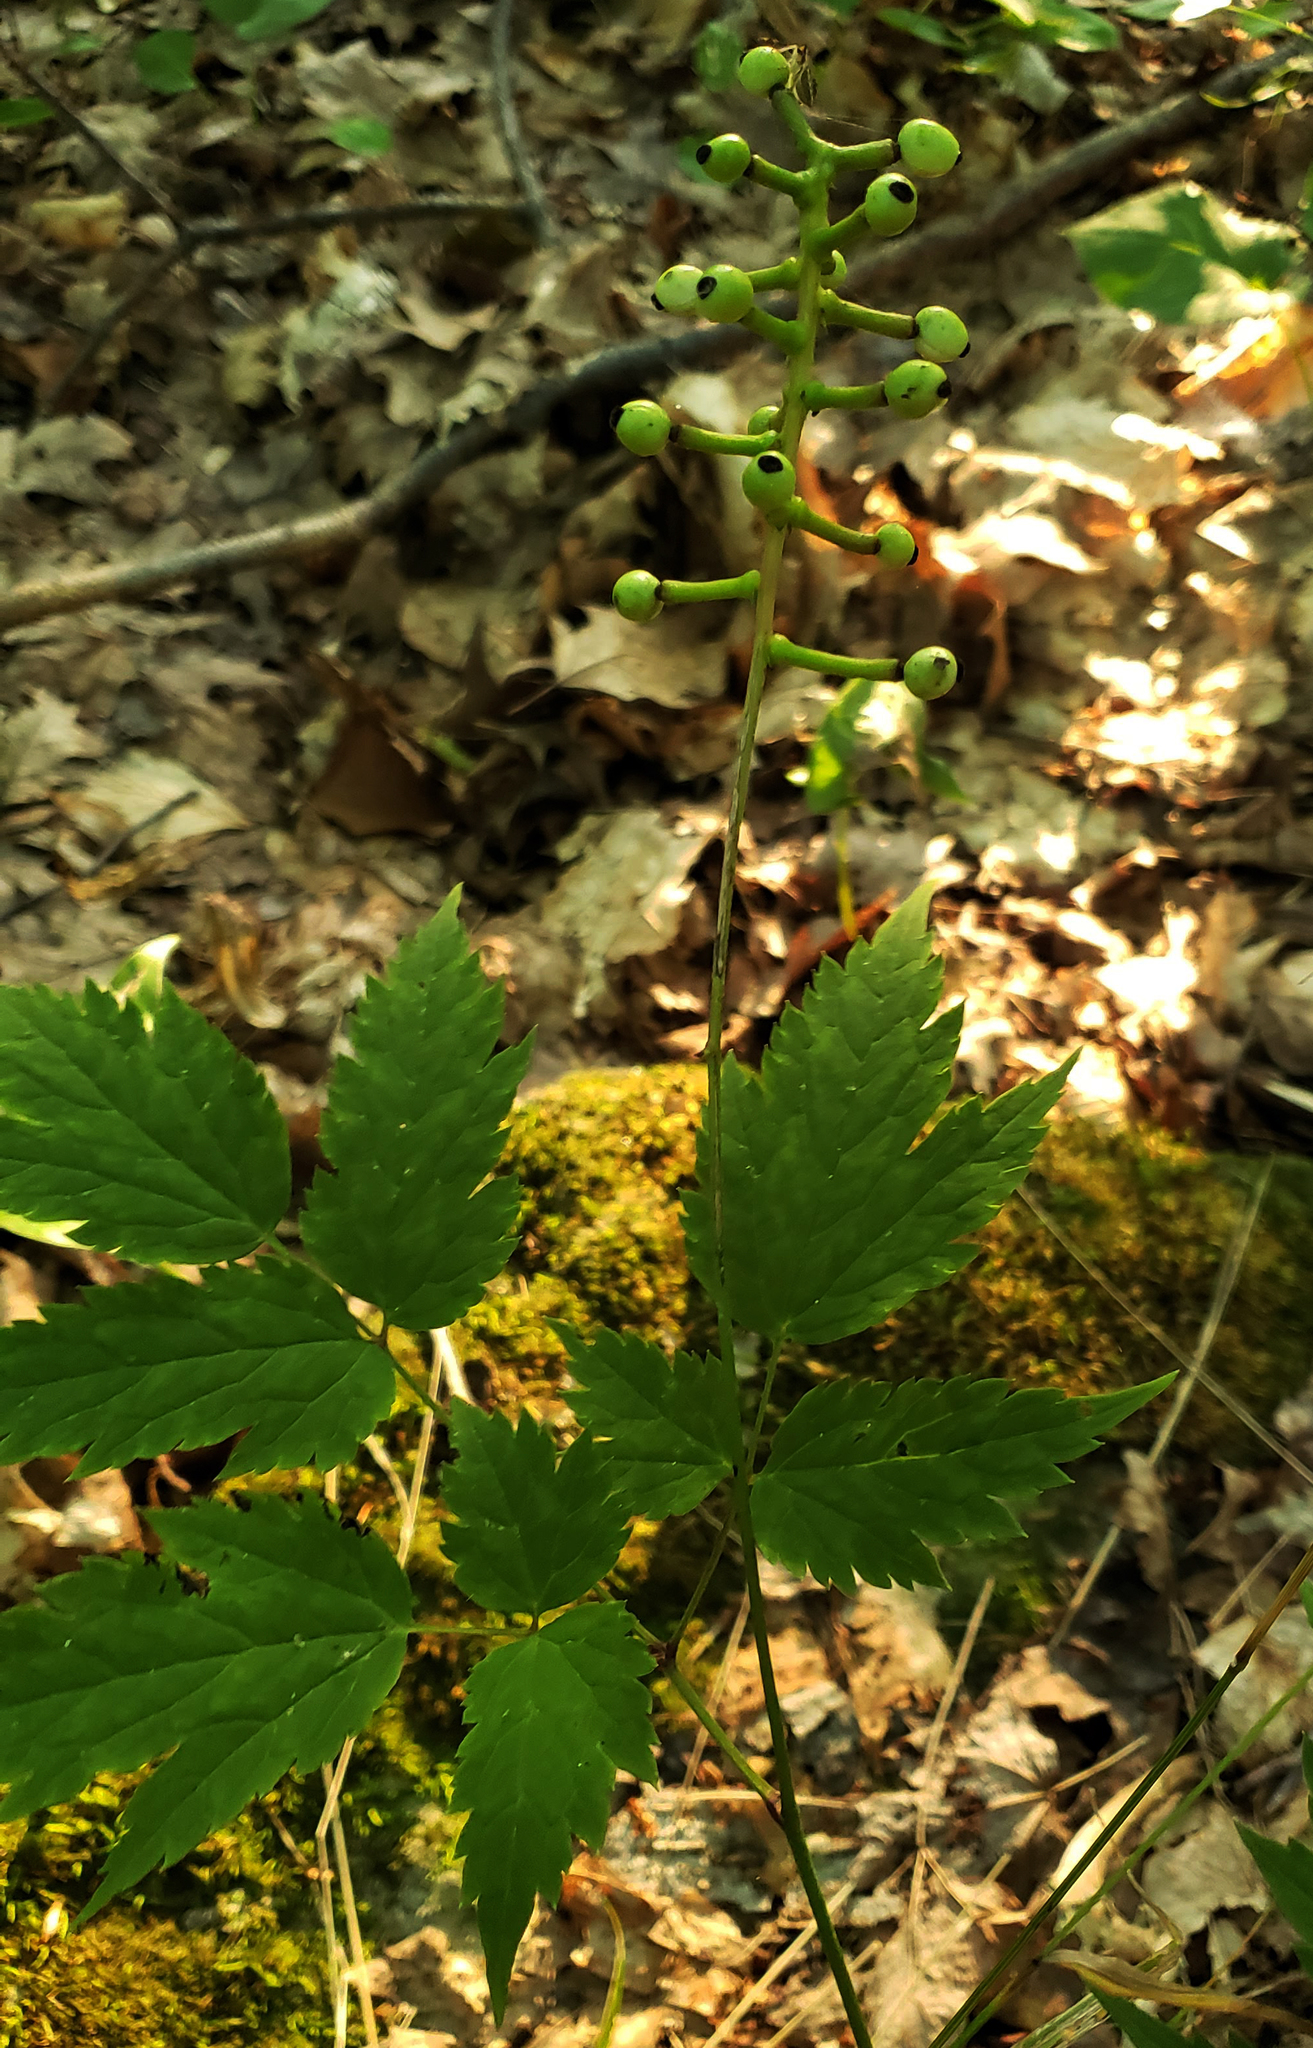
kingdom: Plantae
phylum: Tracheophyta
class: Magnoliopsida
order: Ranunculales
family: Ranunculaceae
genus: Actaea
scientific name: Actaea pachypoda
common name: Doll's-eyes
